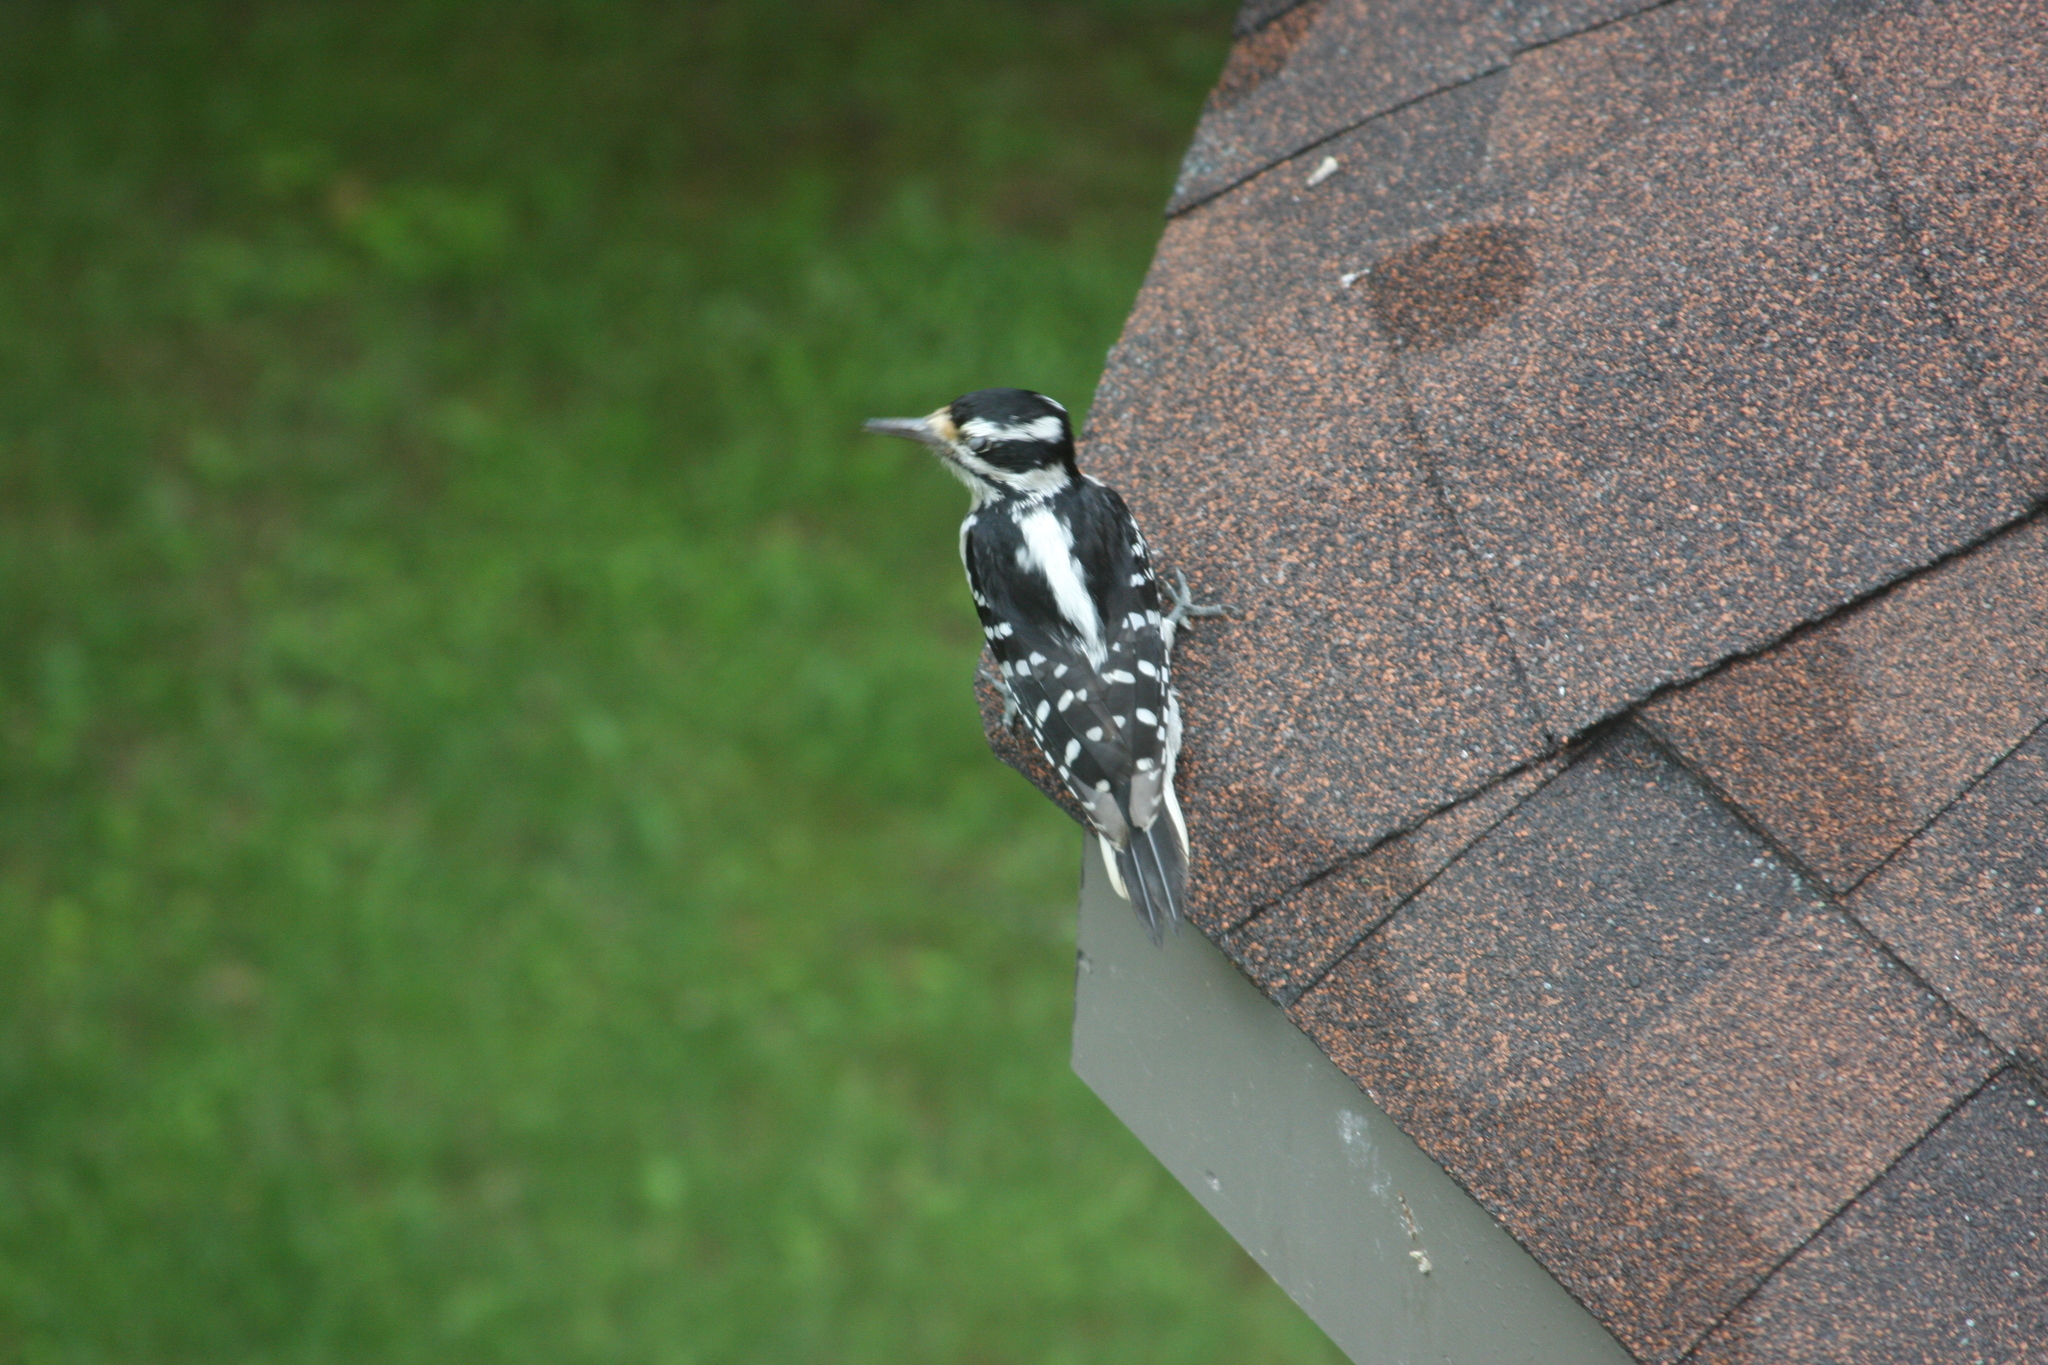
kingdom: Animalia
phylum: Chordata
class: Aves
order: Piciformes
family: Picidae
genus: Leuconotopicus
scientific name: Leuconotopicus villosus
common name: Hairy woodpecker
